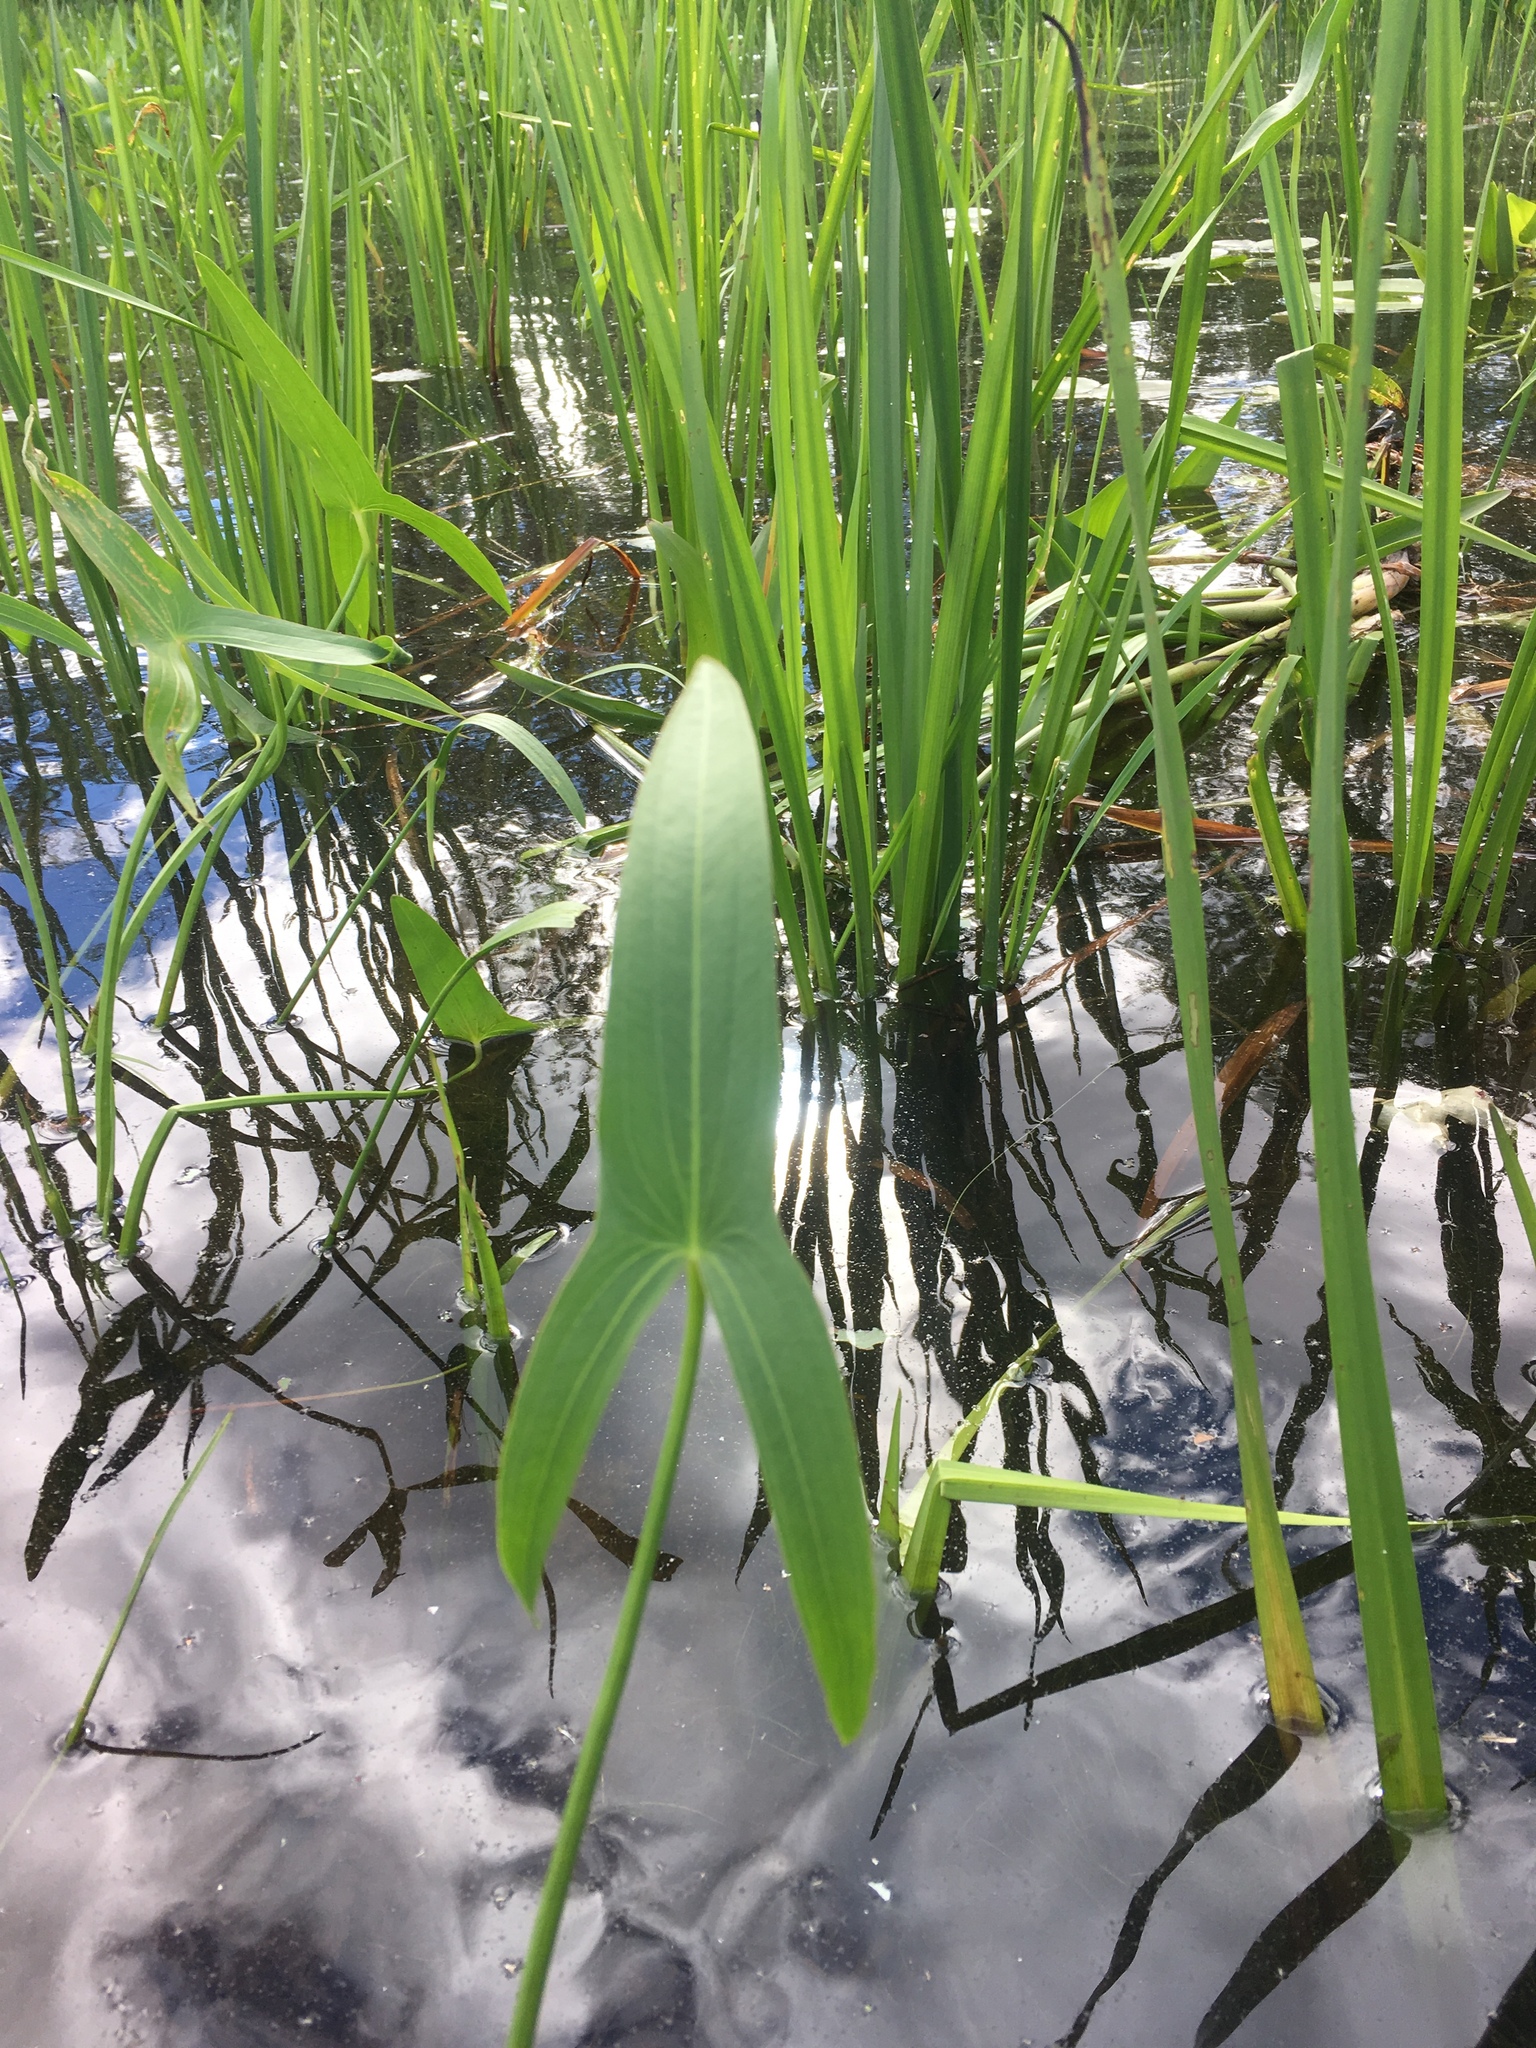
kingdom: Plantae
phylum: Tracheophyta
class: Liliopsida
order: Alismatales
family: Alismataceae
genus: Sagittaria
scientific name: Sagittaria latifolia
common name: Duck-potato
